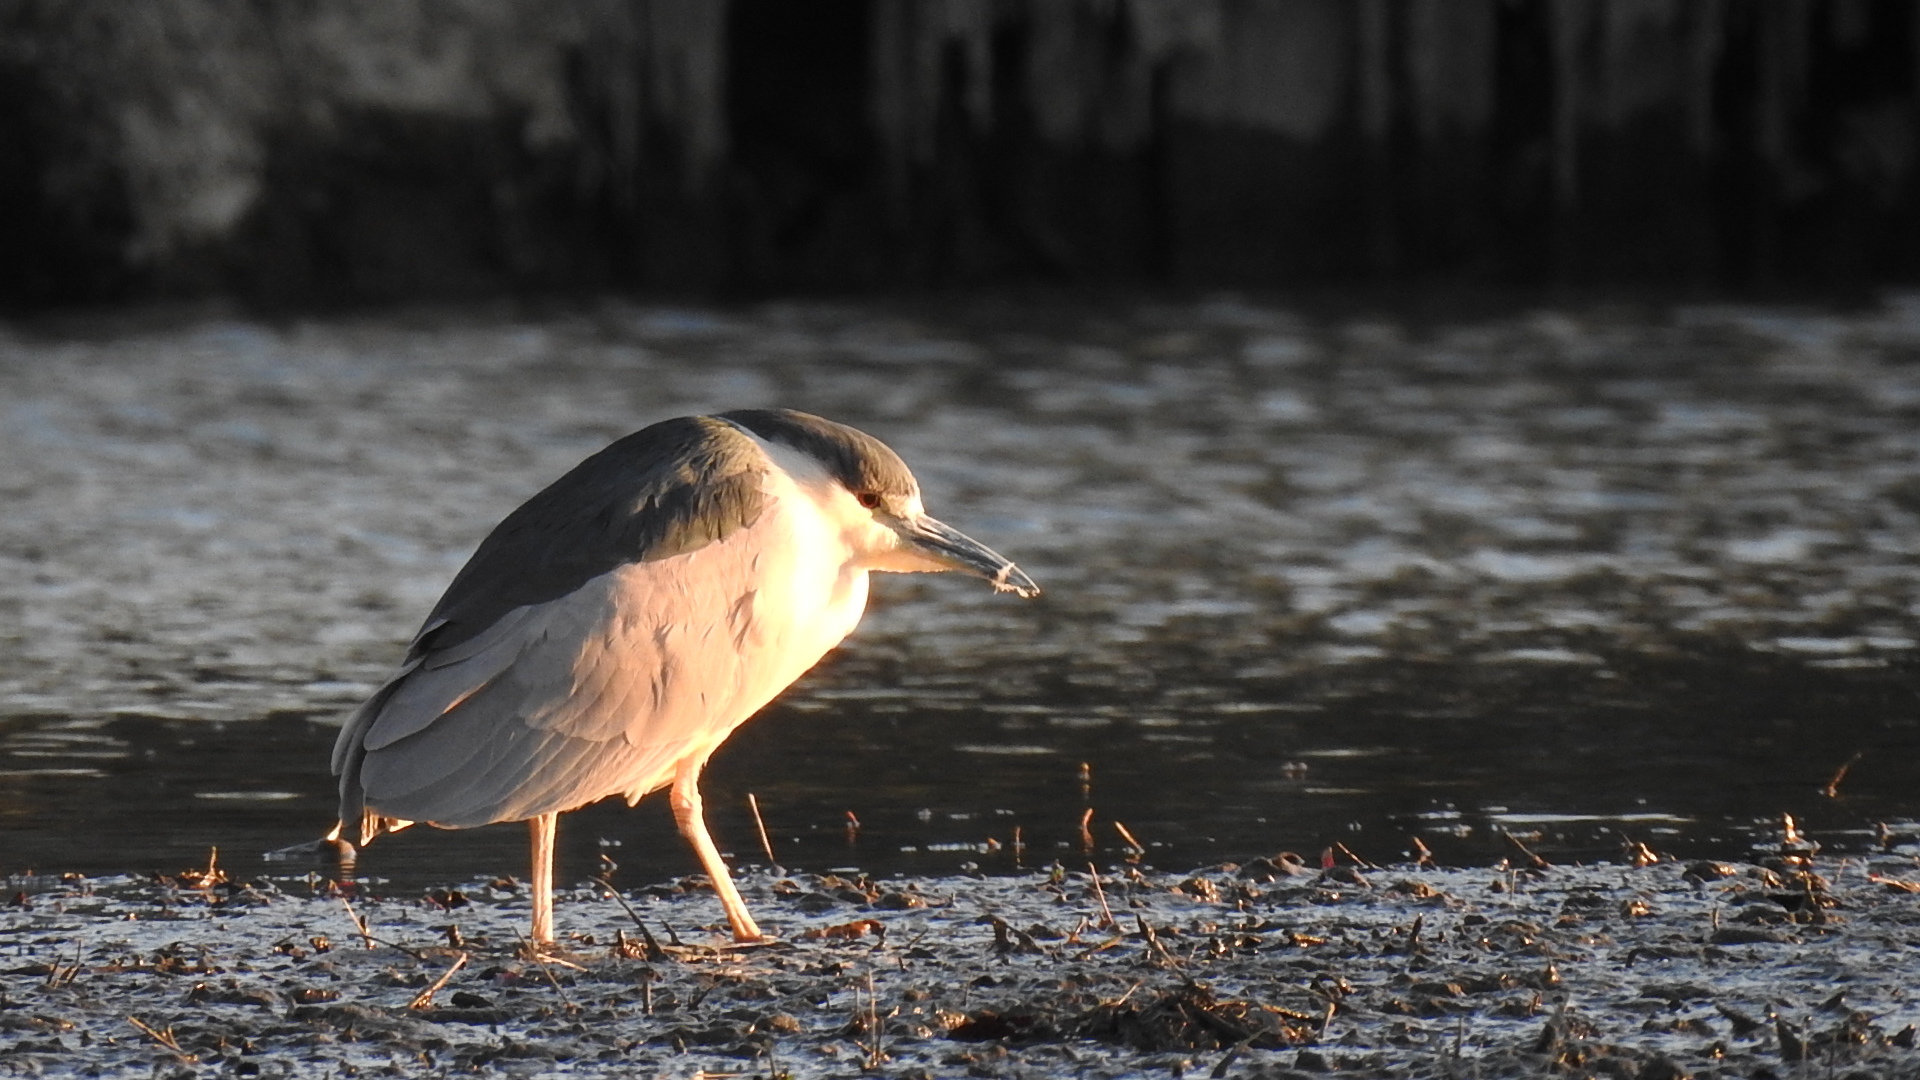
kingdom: Animalia
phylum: Chordata
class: Aves
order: Pelecaniformes
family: Ardeidae
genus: Nycticorax
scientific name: Nycticorax nycticorax
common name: Black-crowned night heron
